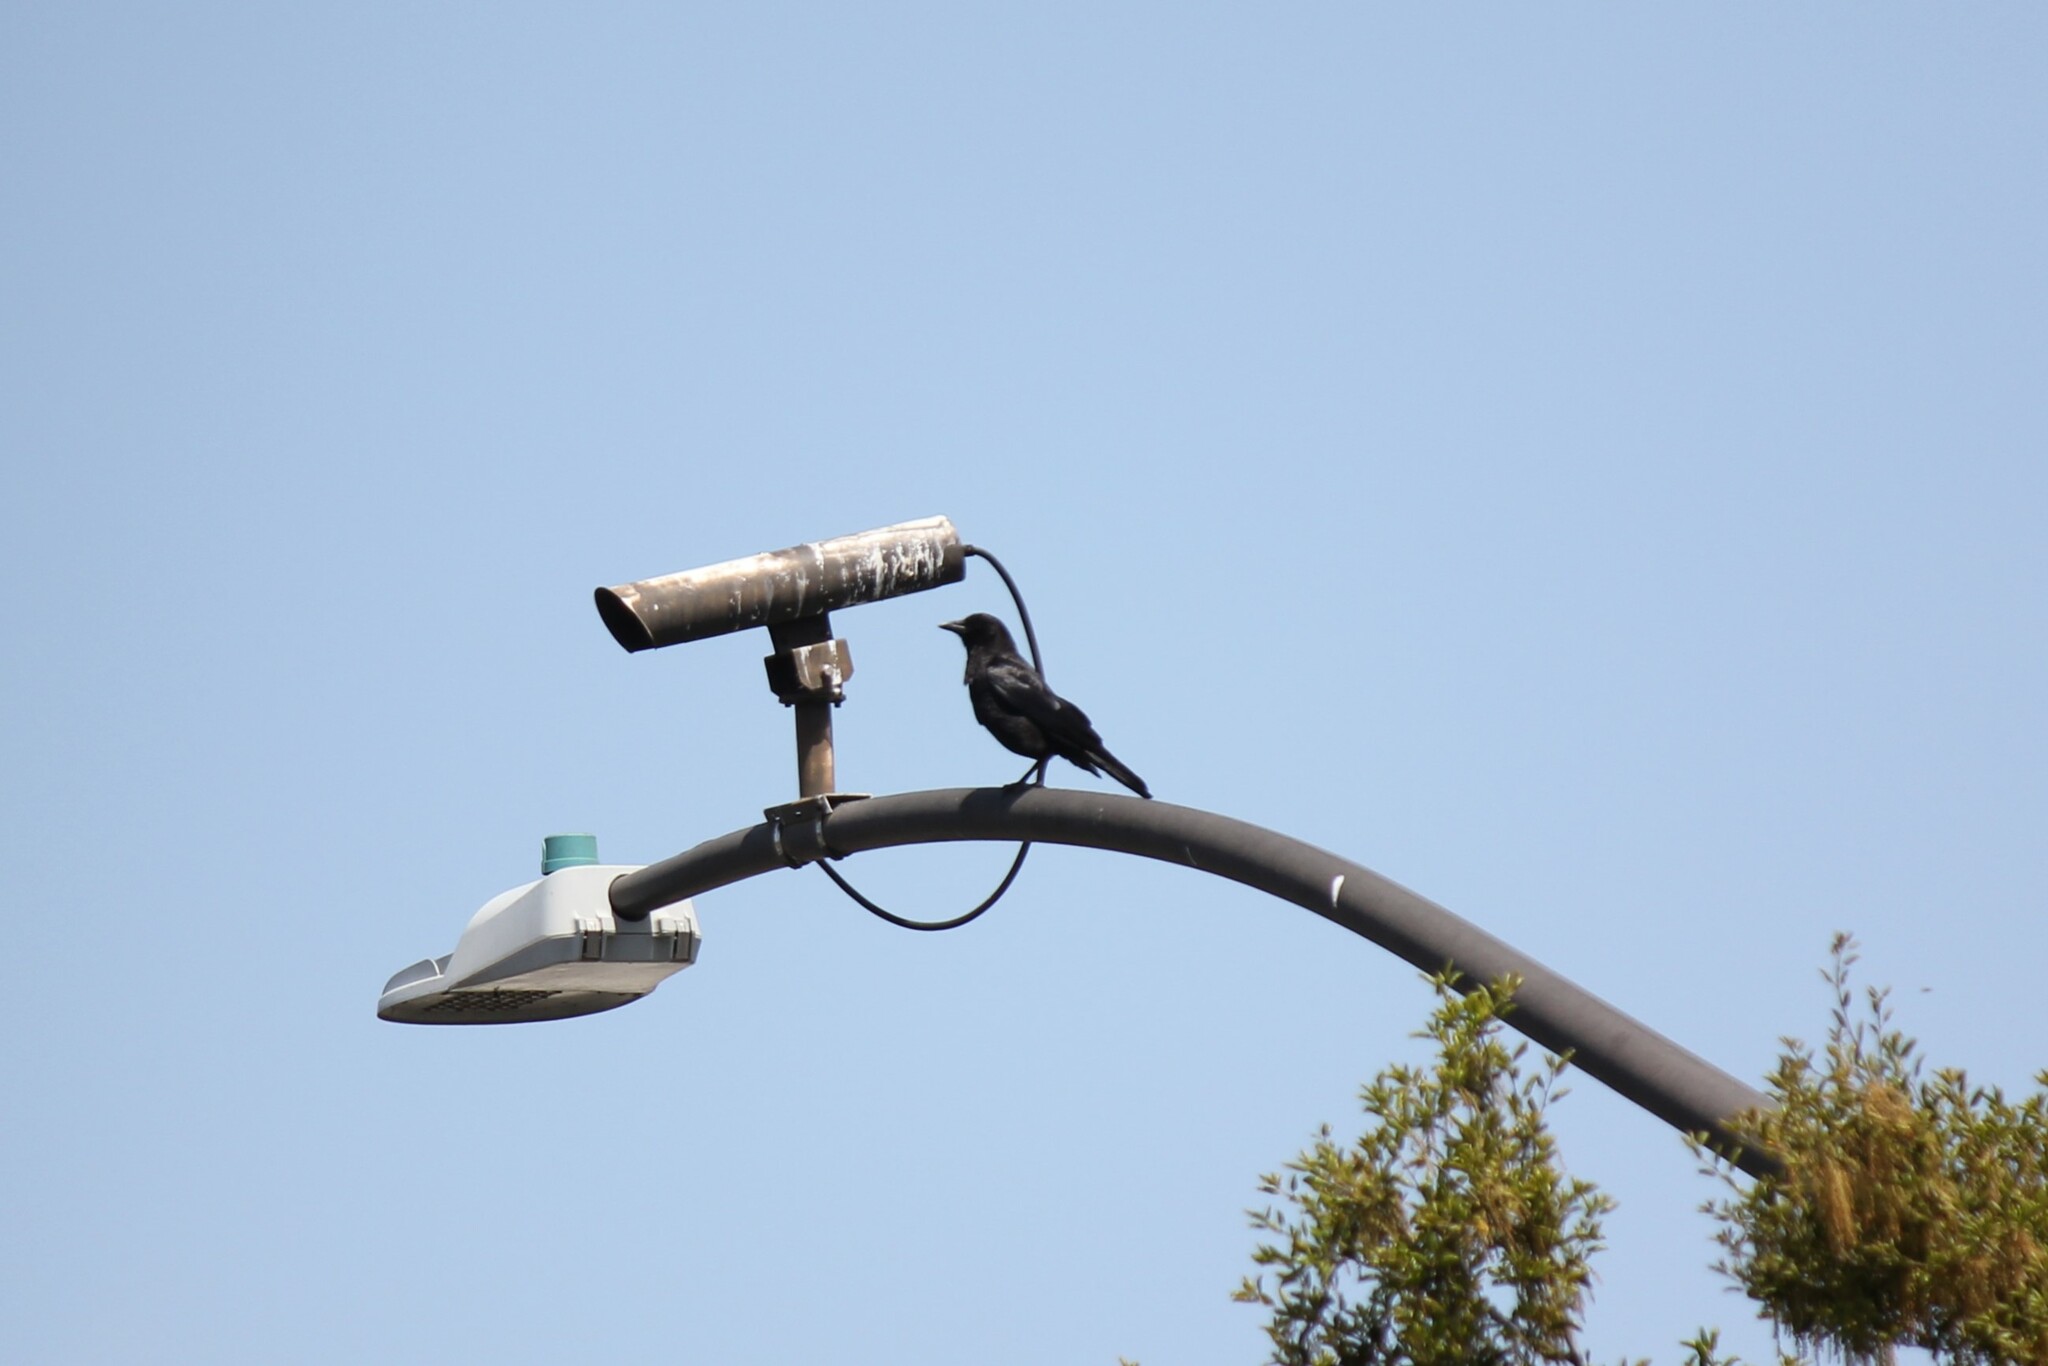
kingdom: Animalia
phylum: Chordata
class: Aves
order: Passeriformes
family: Corvidae
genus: Corvus
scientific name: Corvus brachyrhynchos
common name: American crow
